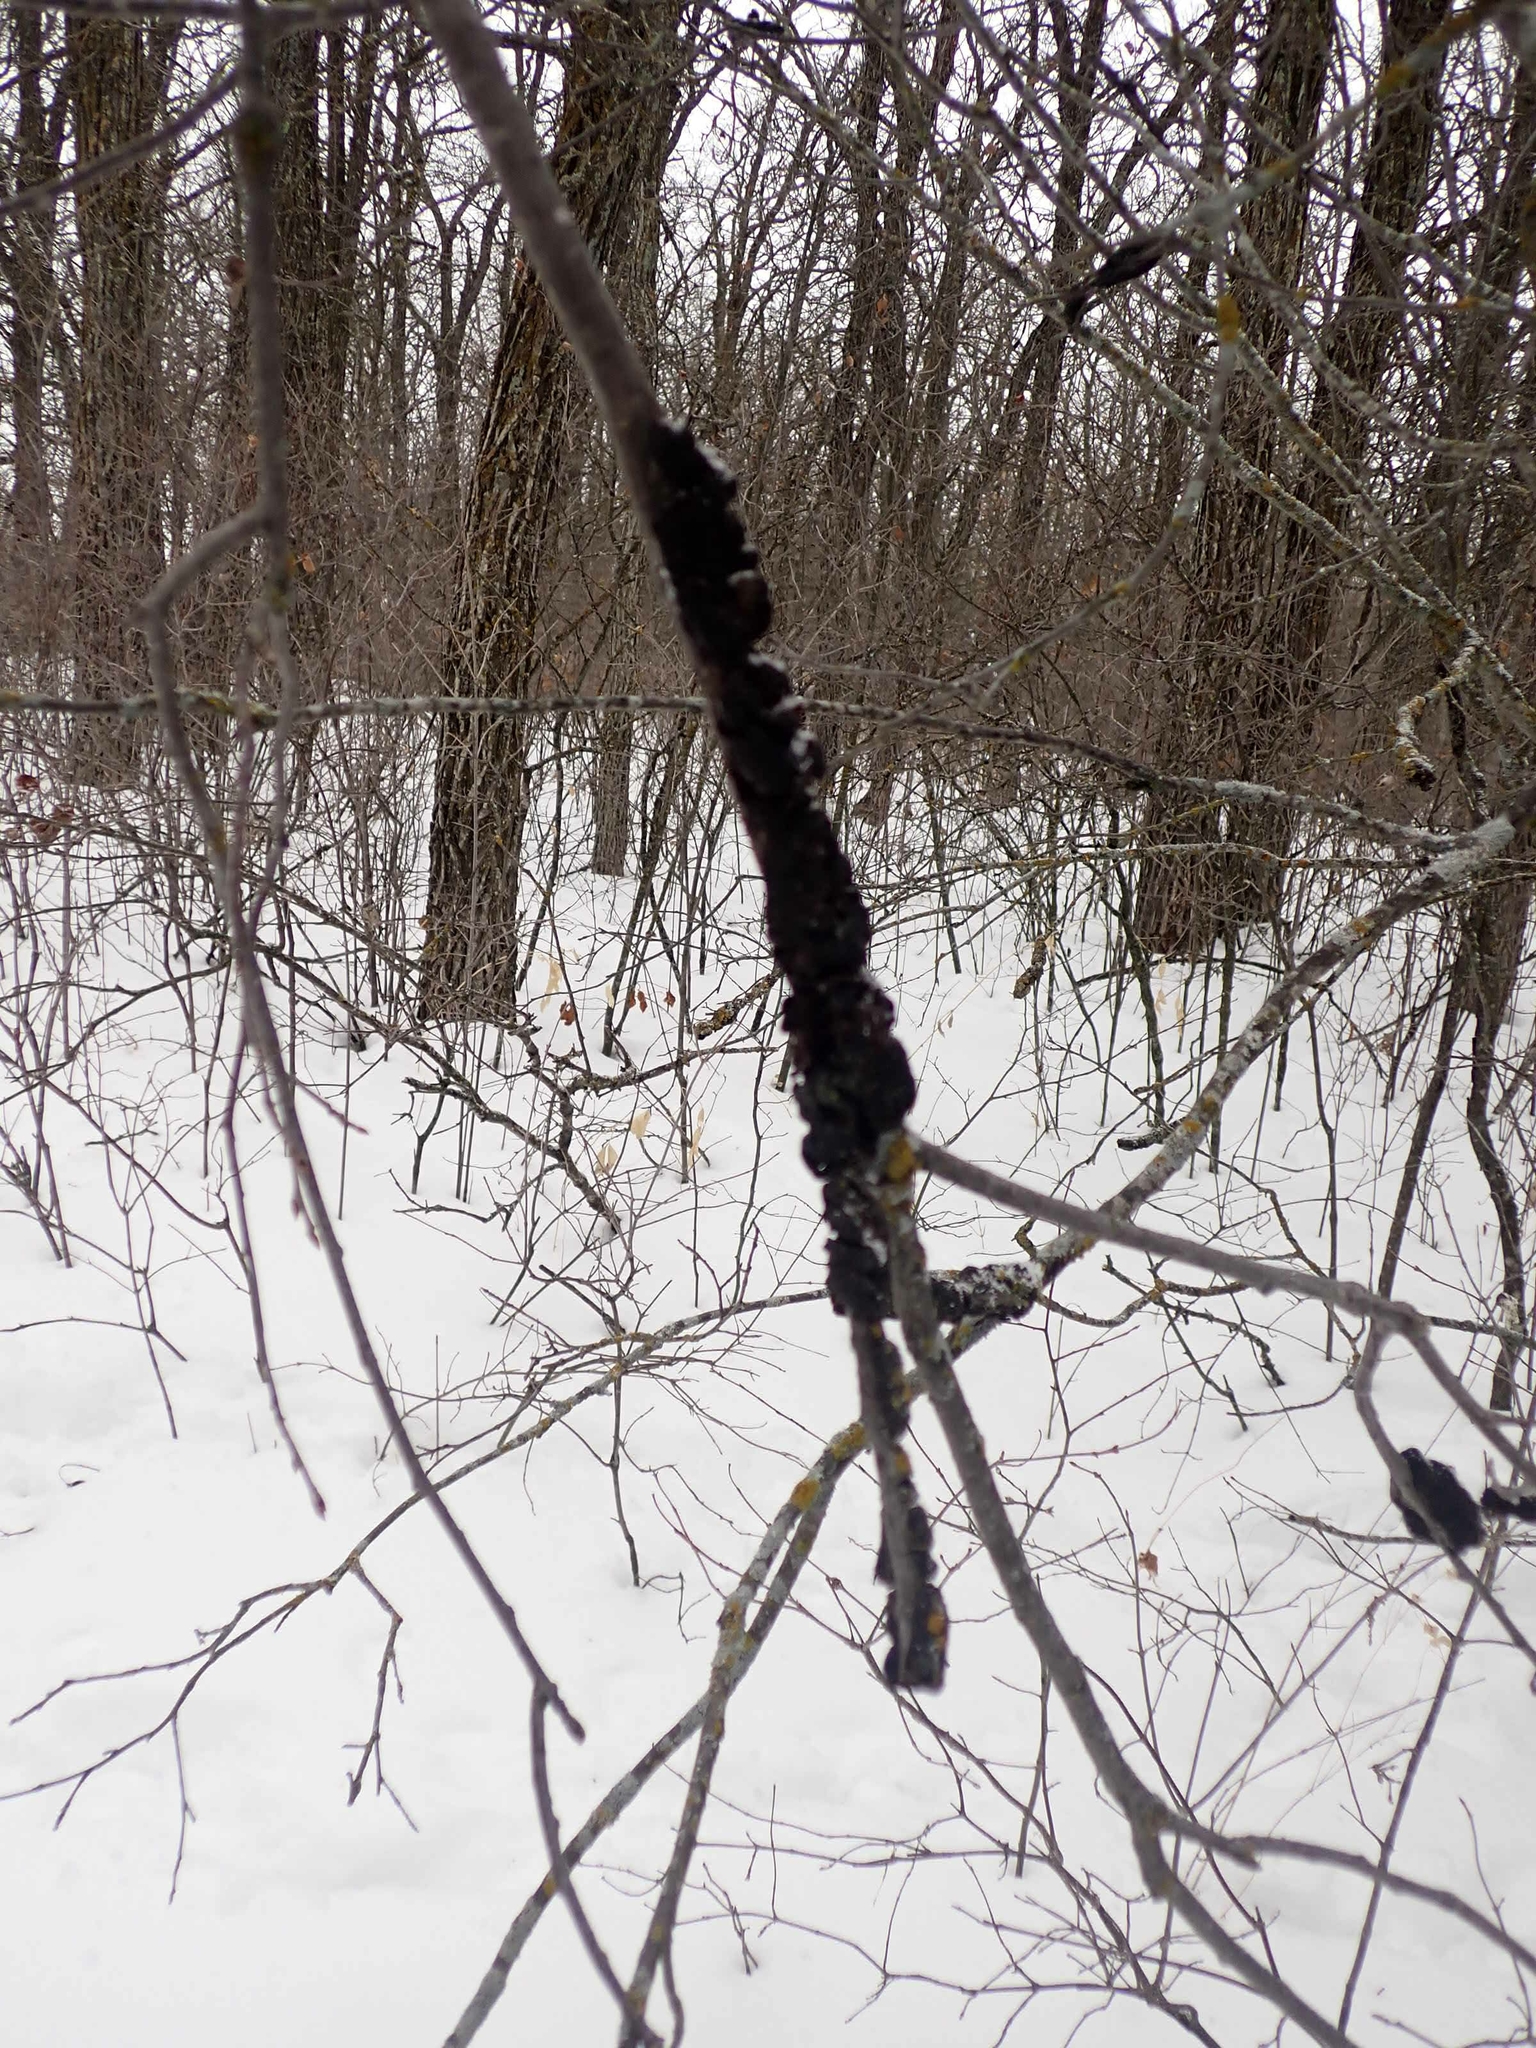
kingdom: Fungi
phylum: Ascomycota
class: Dothideomycetes
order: Venturiales
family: Venturiaceae
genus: Apiosporina
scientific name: Apiosporina morbosa
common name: Black knot
